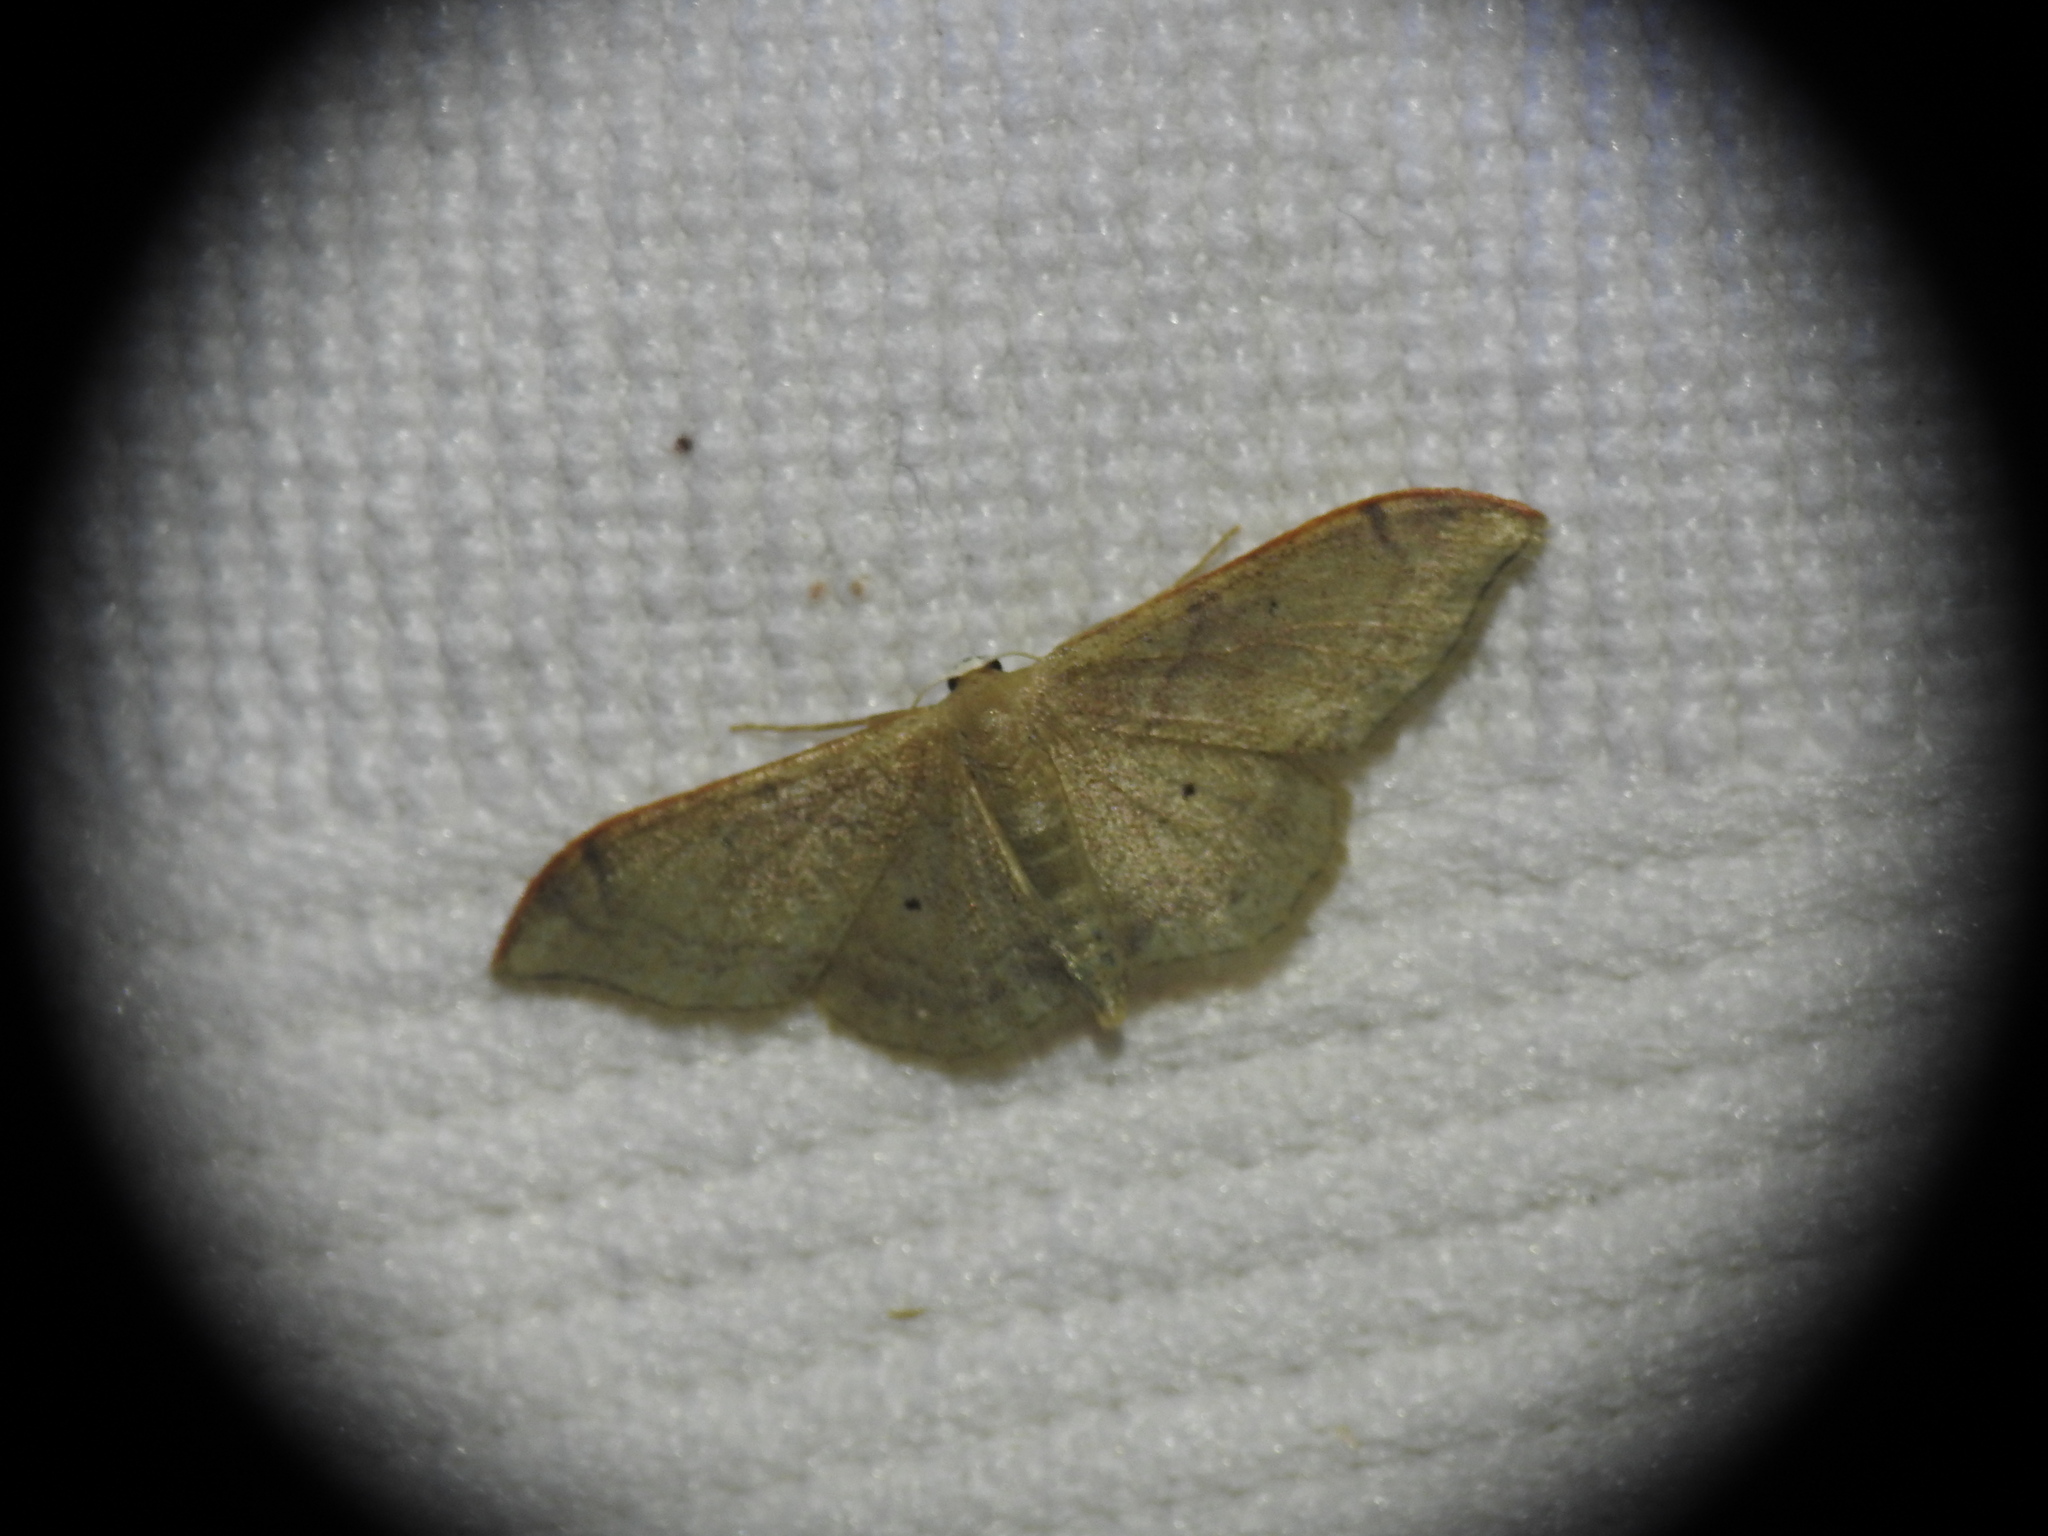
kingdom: Animalia
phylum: Arthropoda
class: Insecta
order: Lepidoptera
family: Geometridae
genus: Idaea
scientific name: Idaea degeneraria
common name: Portland ribbon wave
